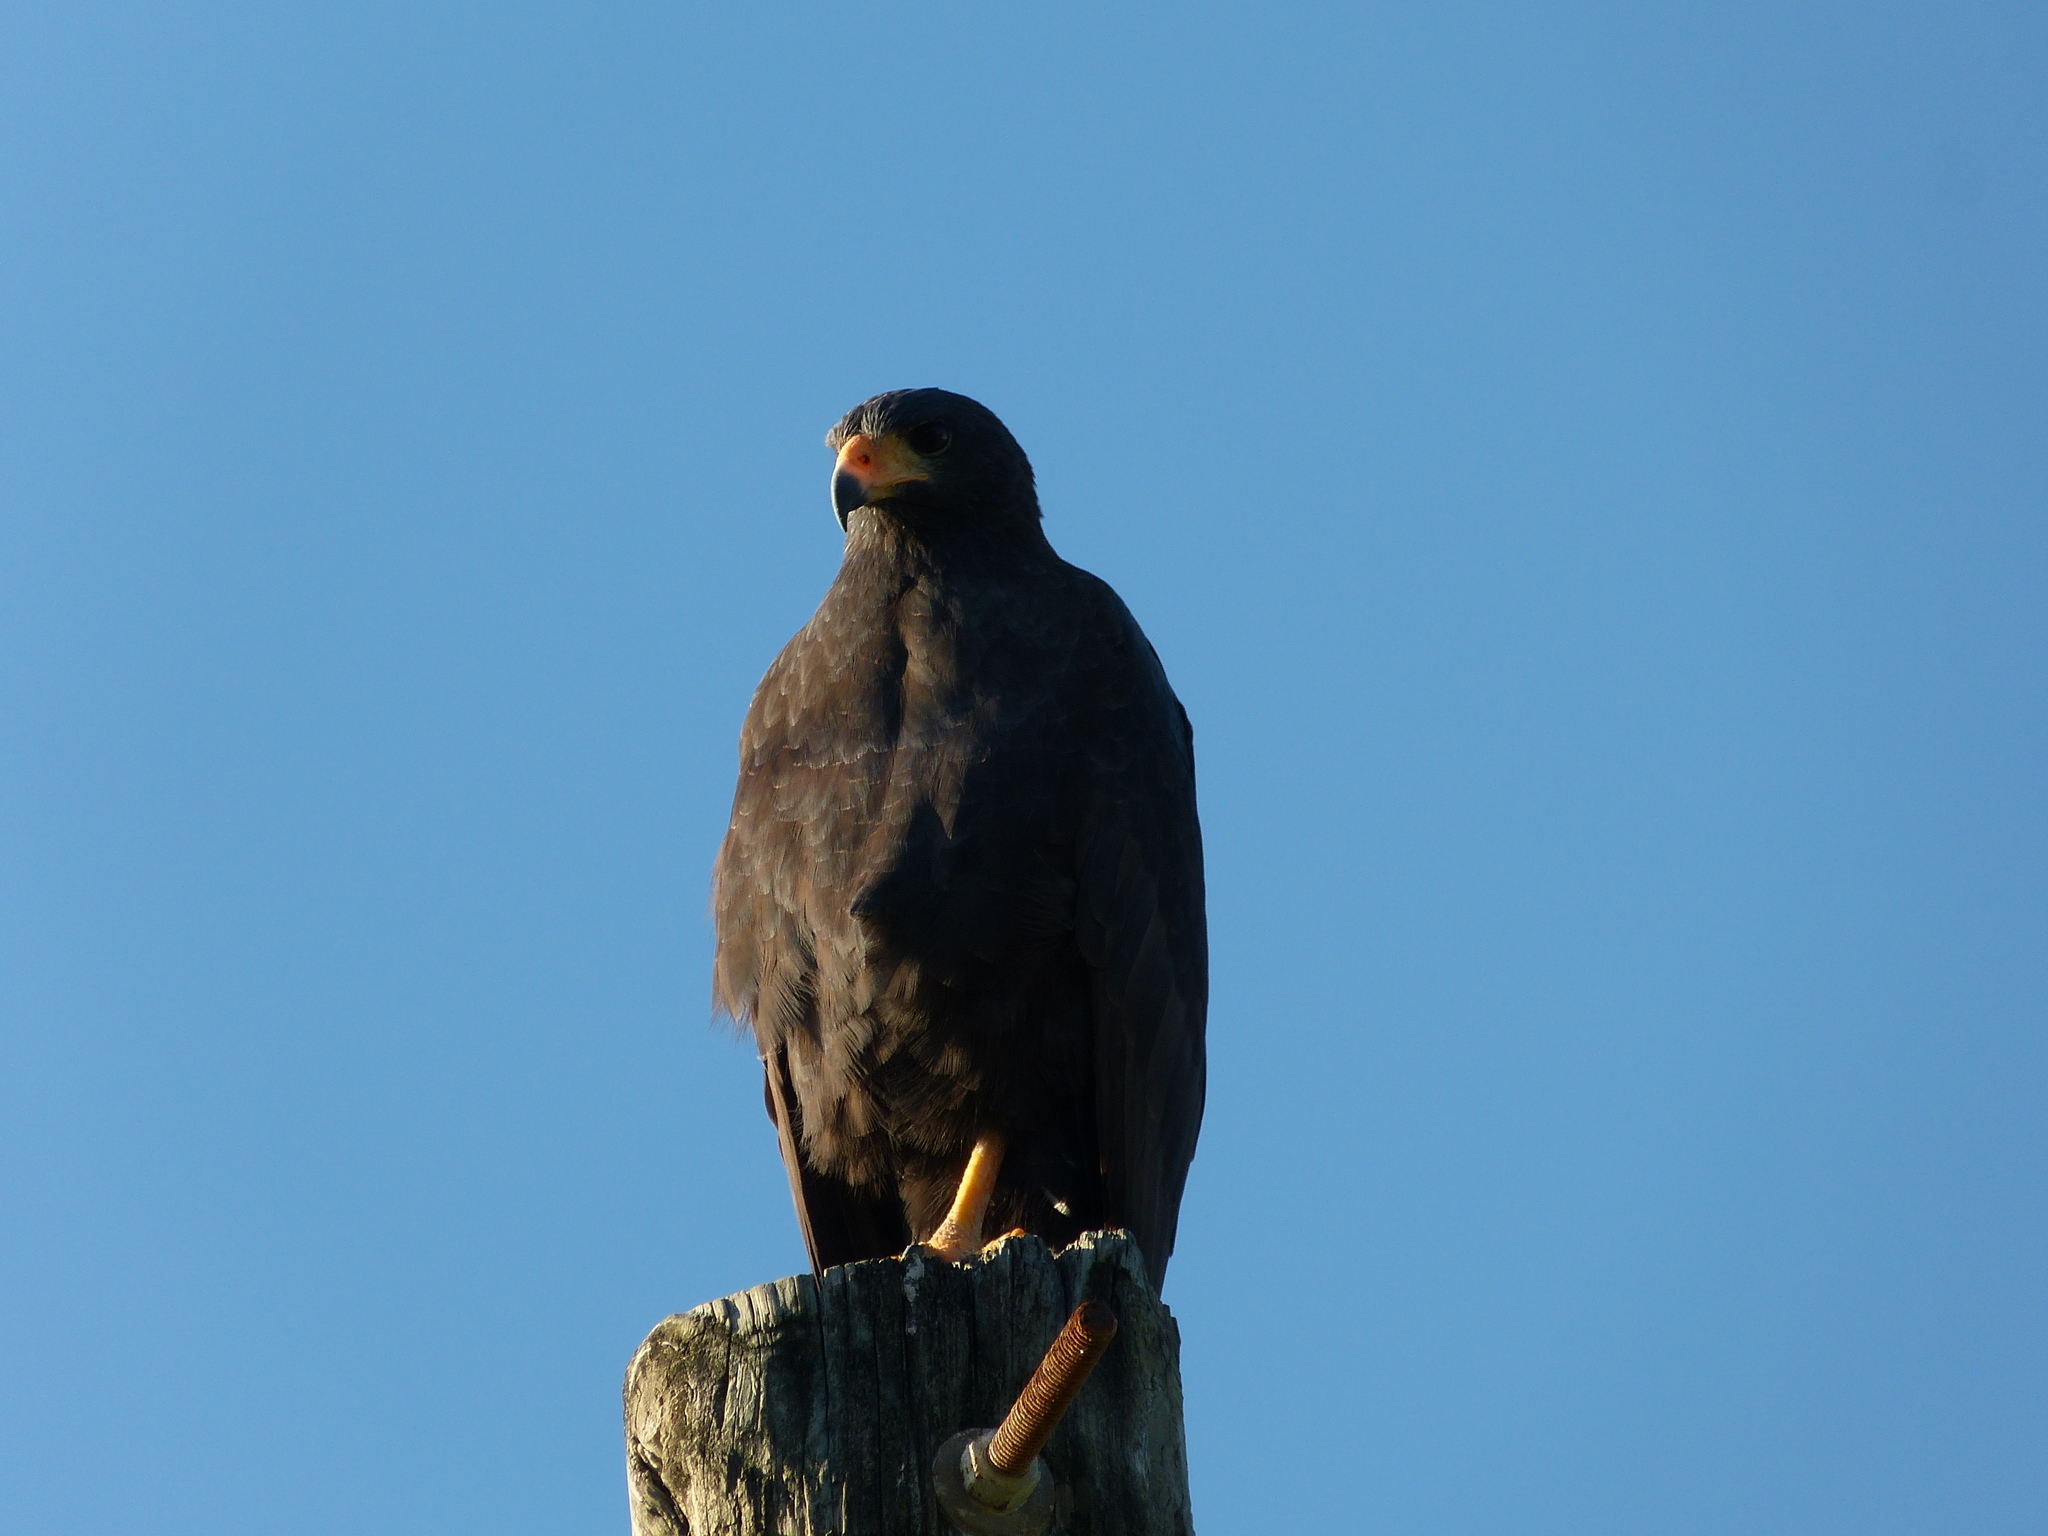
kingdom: Animalia
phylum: Chordata
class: Aves
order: Accipitriformes
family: Accipitridae
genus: Buteogallus
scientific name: Buteogallus anthracinus
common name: Common black hawk
